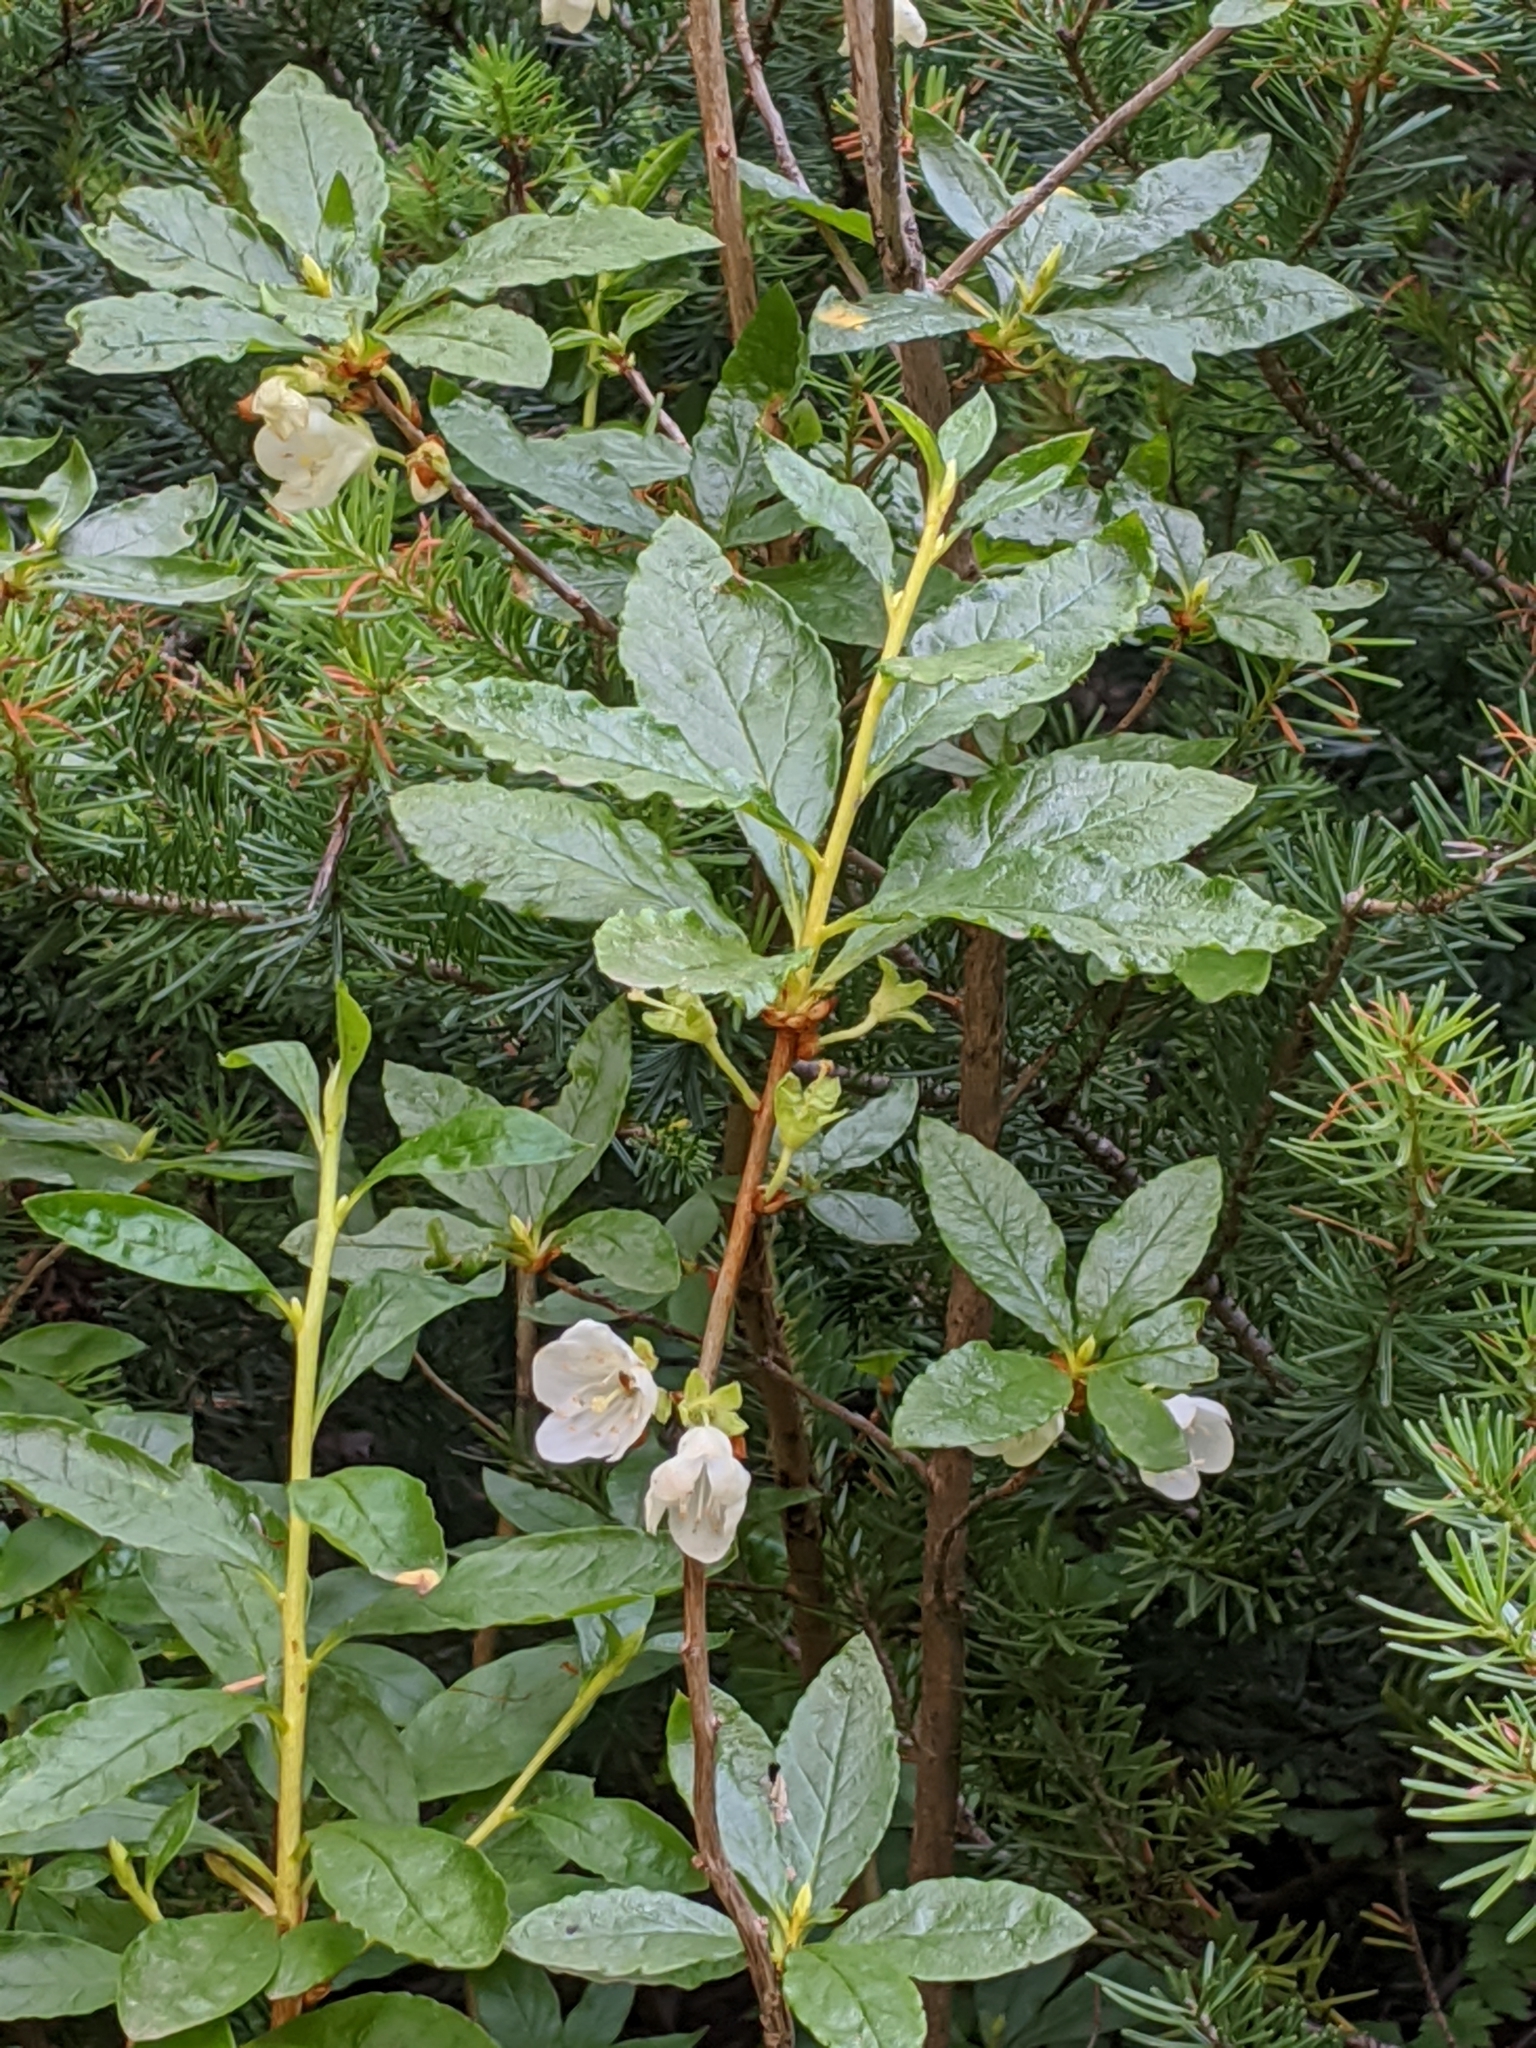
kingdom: Plantae
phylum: Tracheophyta
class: Magnoliopsida
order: Ericales
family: Ericaceae
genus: Rhododendron
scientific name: Rhododendron albiflorum
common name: White rhododendron
